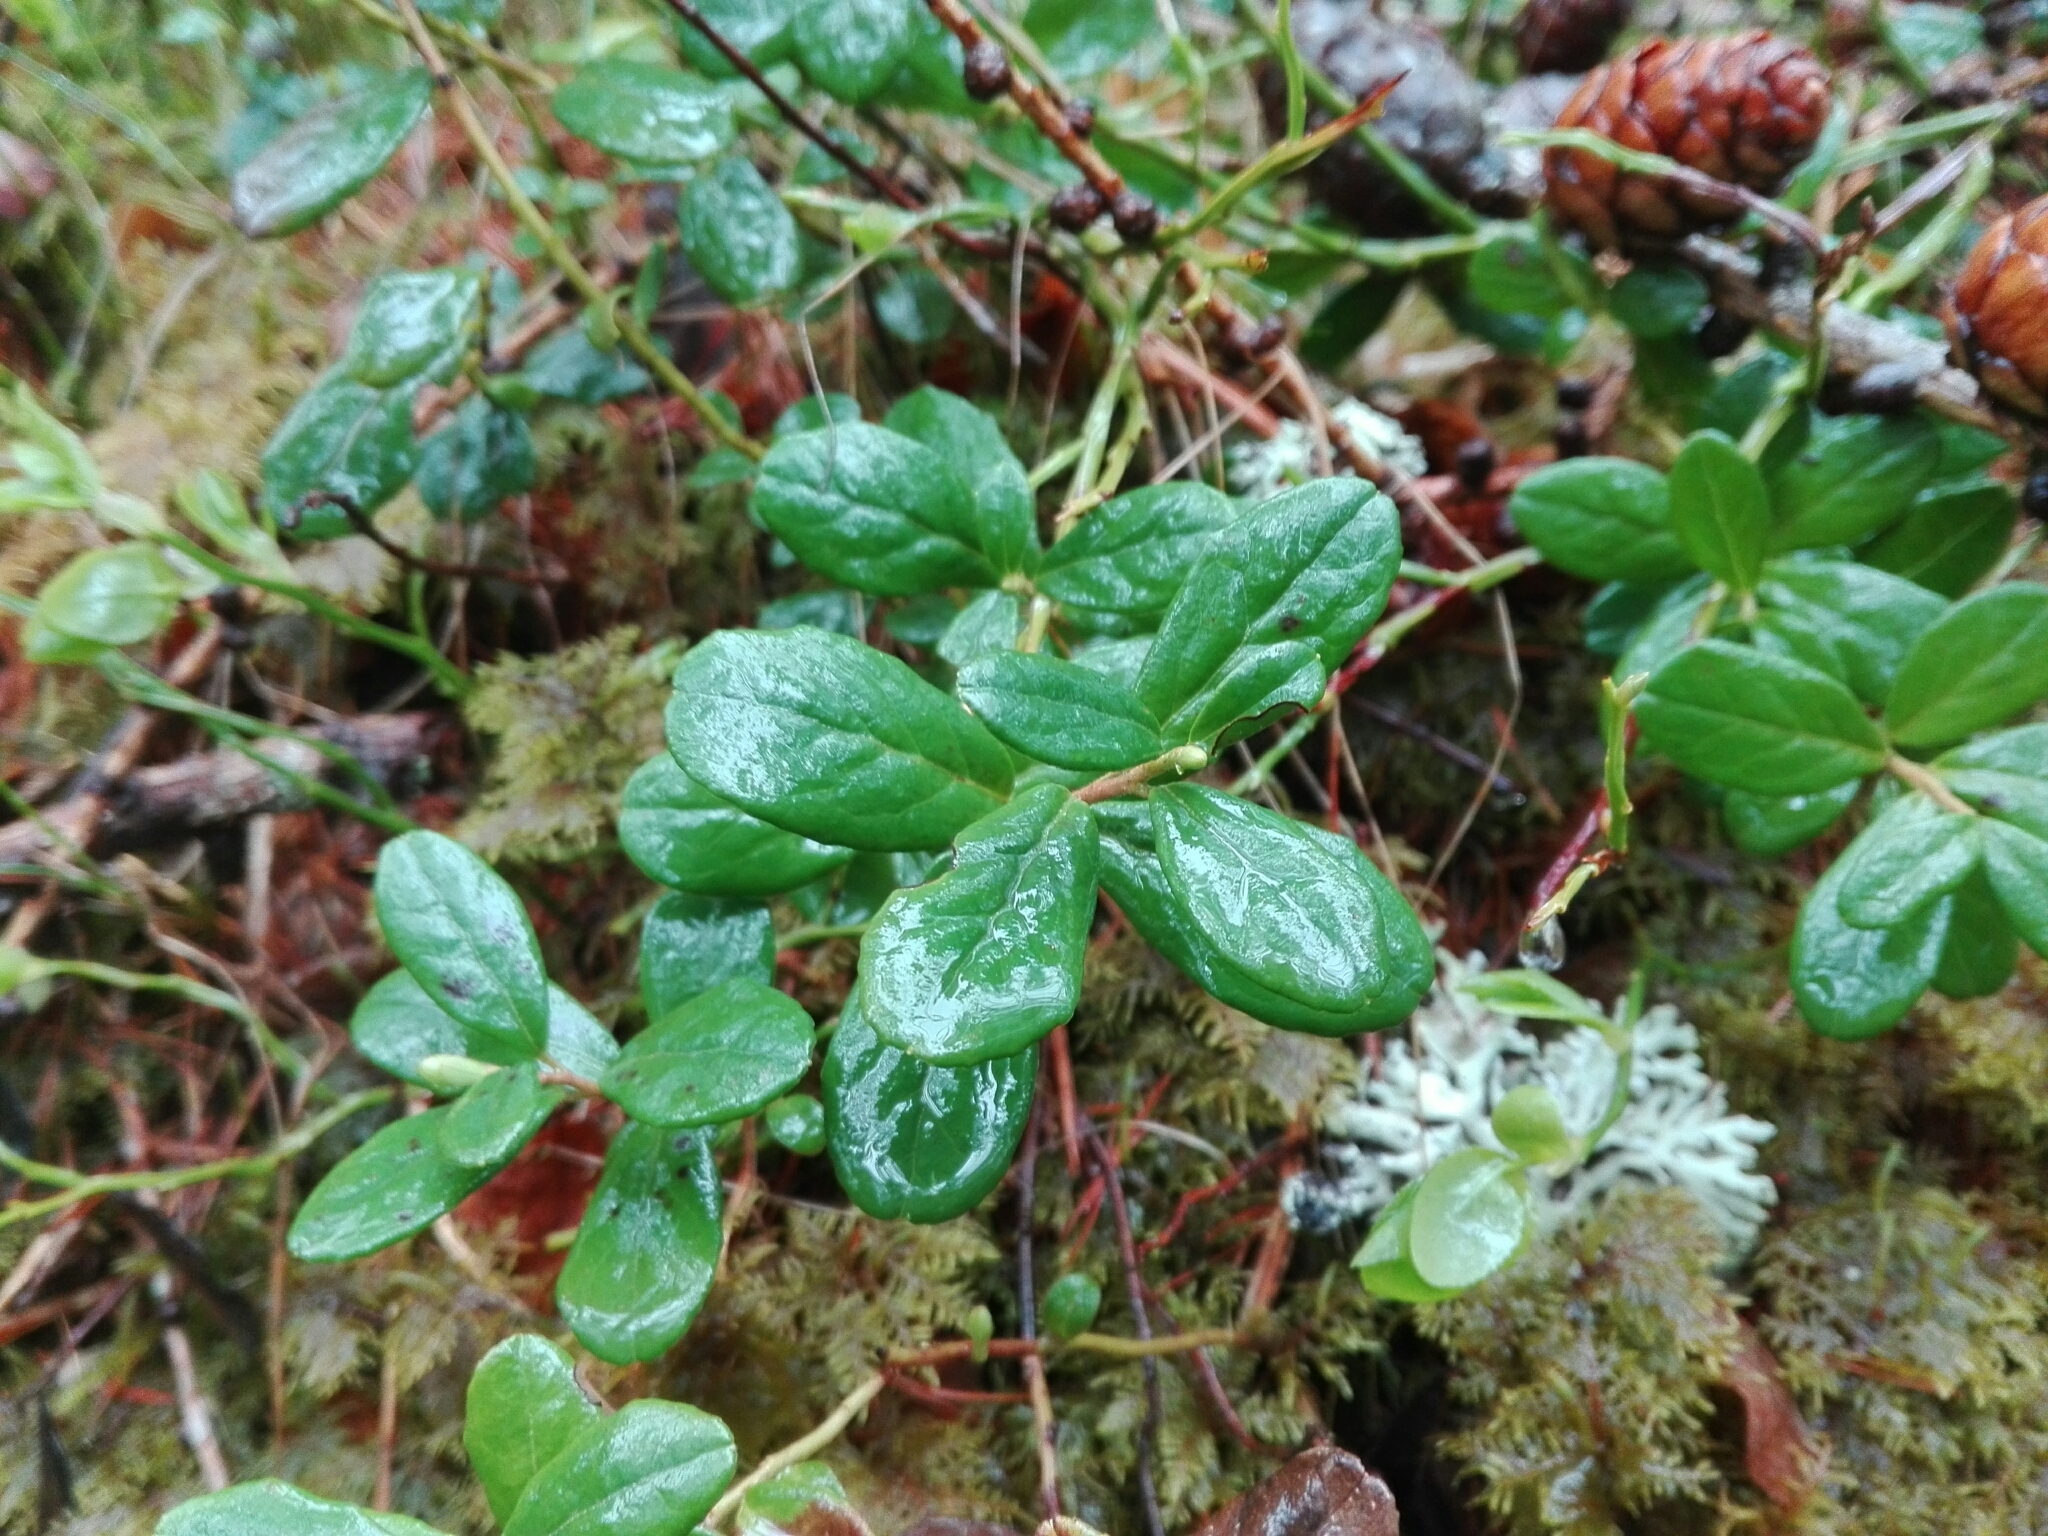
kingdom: Plantae
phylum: Tracheophyta
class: Magnoliopsida
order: Ericales
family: Ericaceae
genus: Vaccinium
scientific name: Vaccinium vitis-idaea
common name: Cowberry
